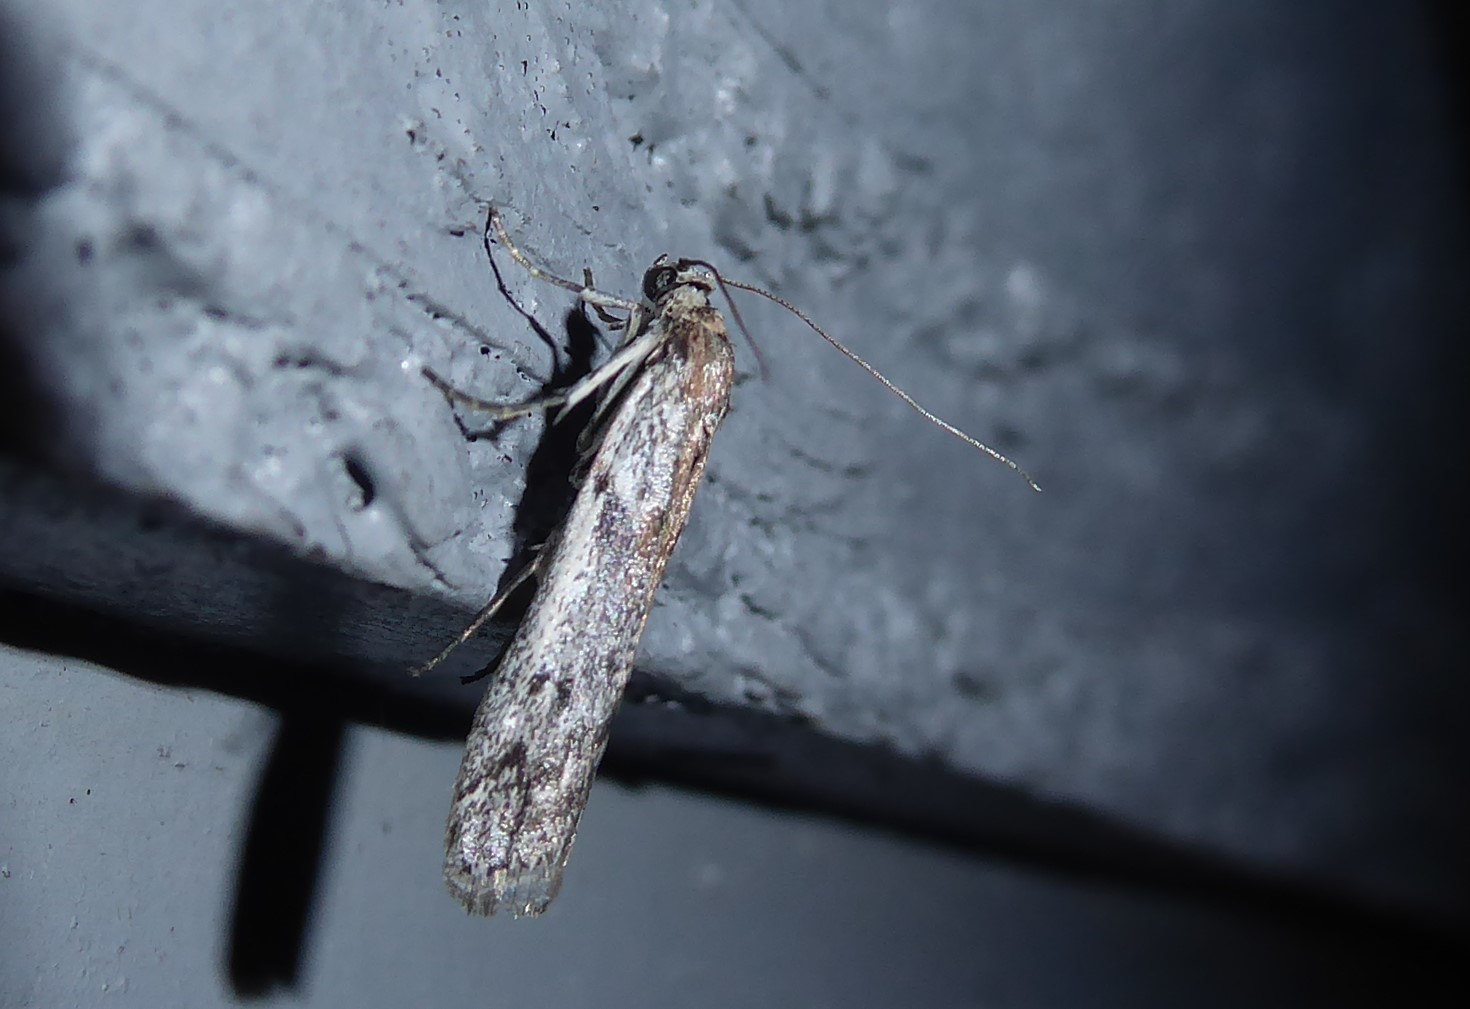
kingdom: Animalia
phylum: Arthropoda
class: Insecta
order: Lepidoptera
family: Pyralidae
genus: Patagoniodes
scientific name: Patagoniodes farinaria
